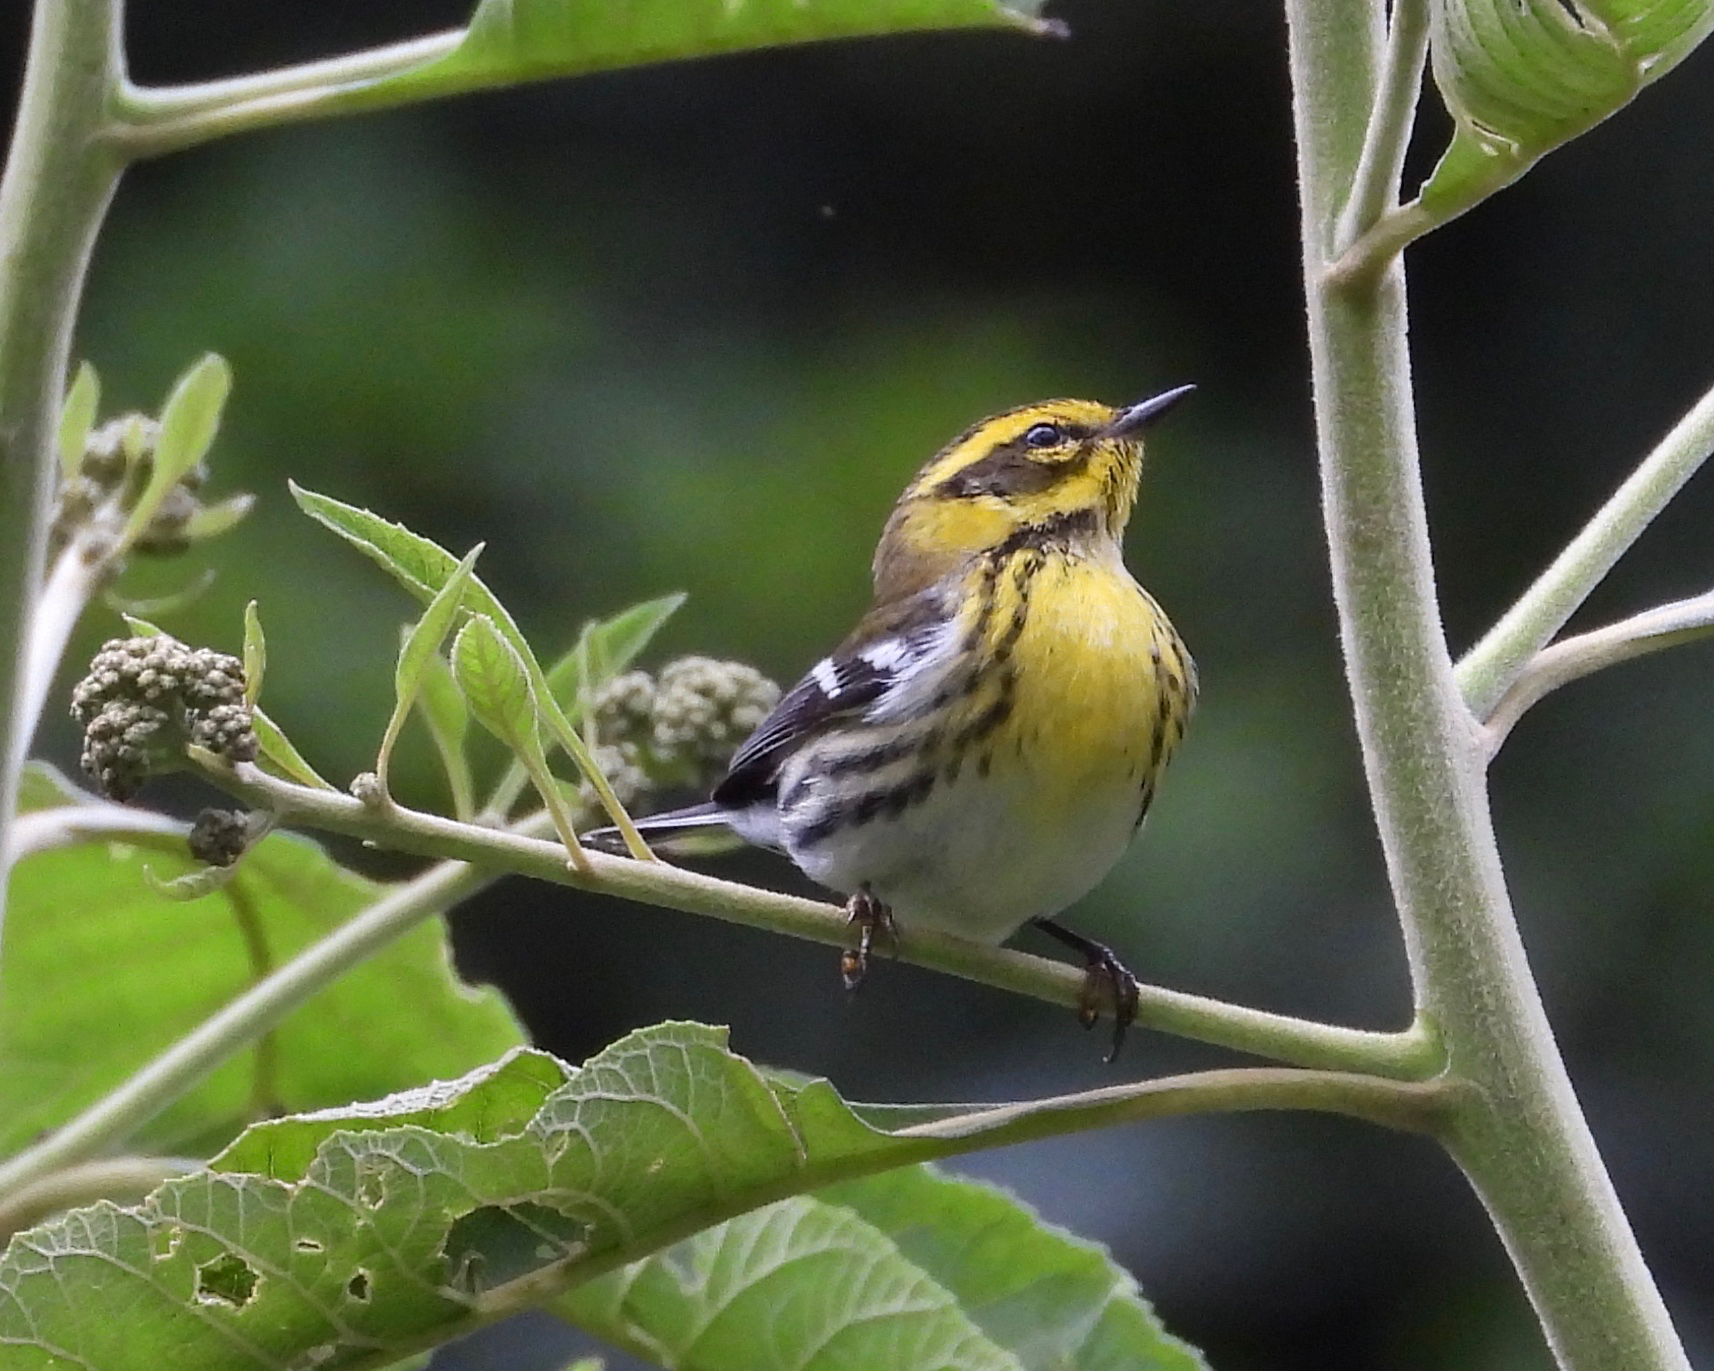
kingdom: Animalia
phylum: Chordata
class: Aves
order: Passeriformes
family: Parulidae
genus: Setophaga
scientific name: Setophaga townsendi
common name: Townsend's warbler
